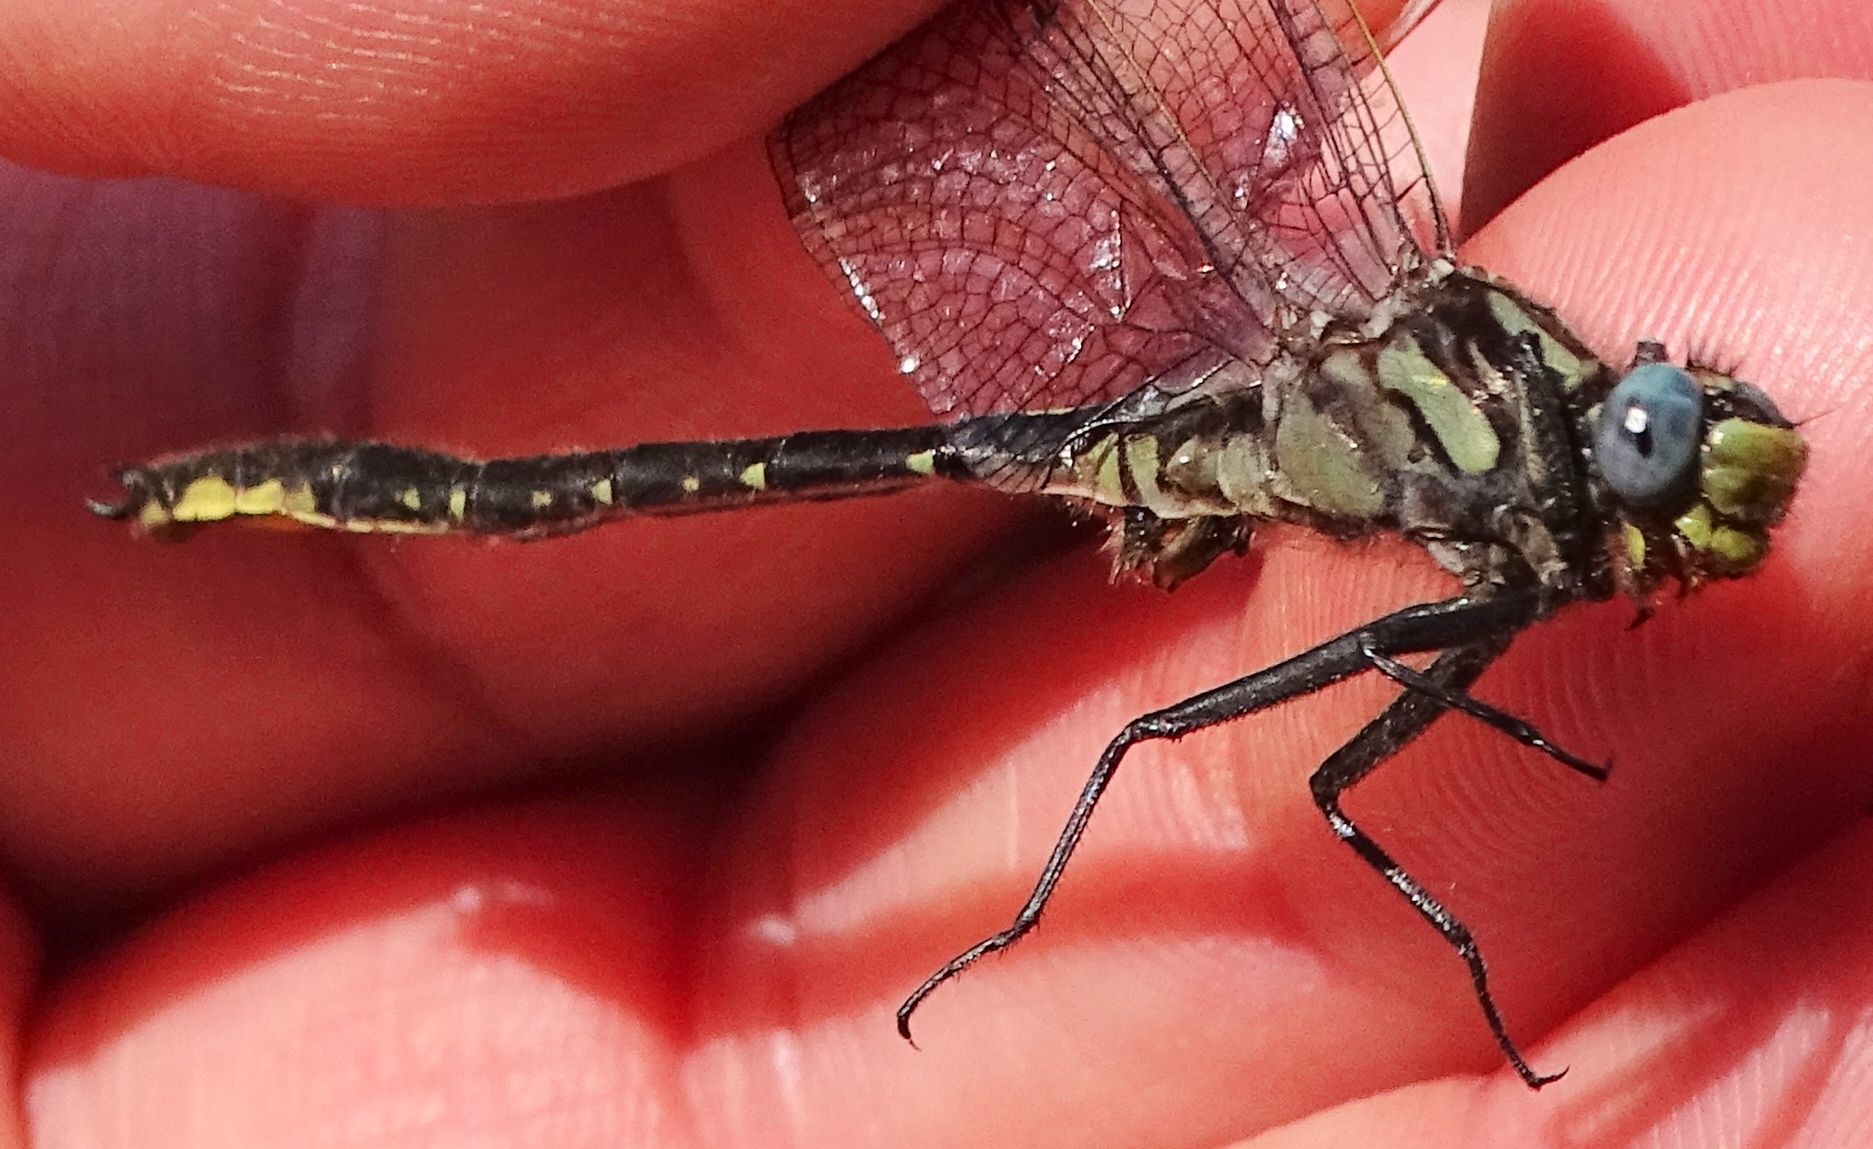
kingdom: Animalia
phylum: Arthropoda
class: Insecta
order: Odonata
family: Gomphidae
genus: Phanogomphus
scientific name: Phanogomphus borealis
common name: Beaverpond clubtail
